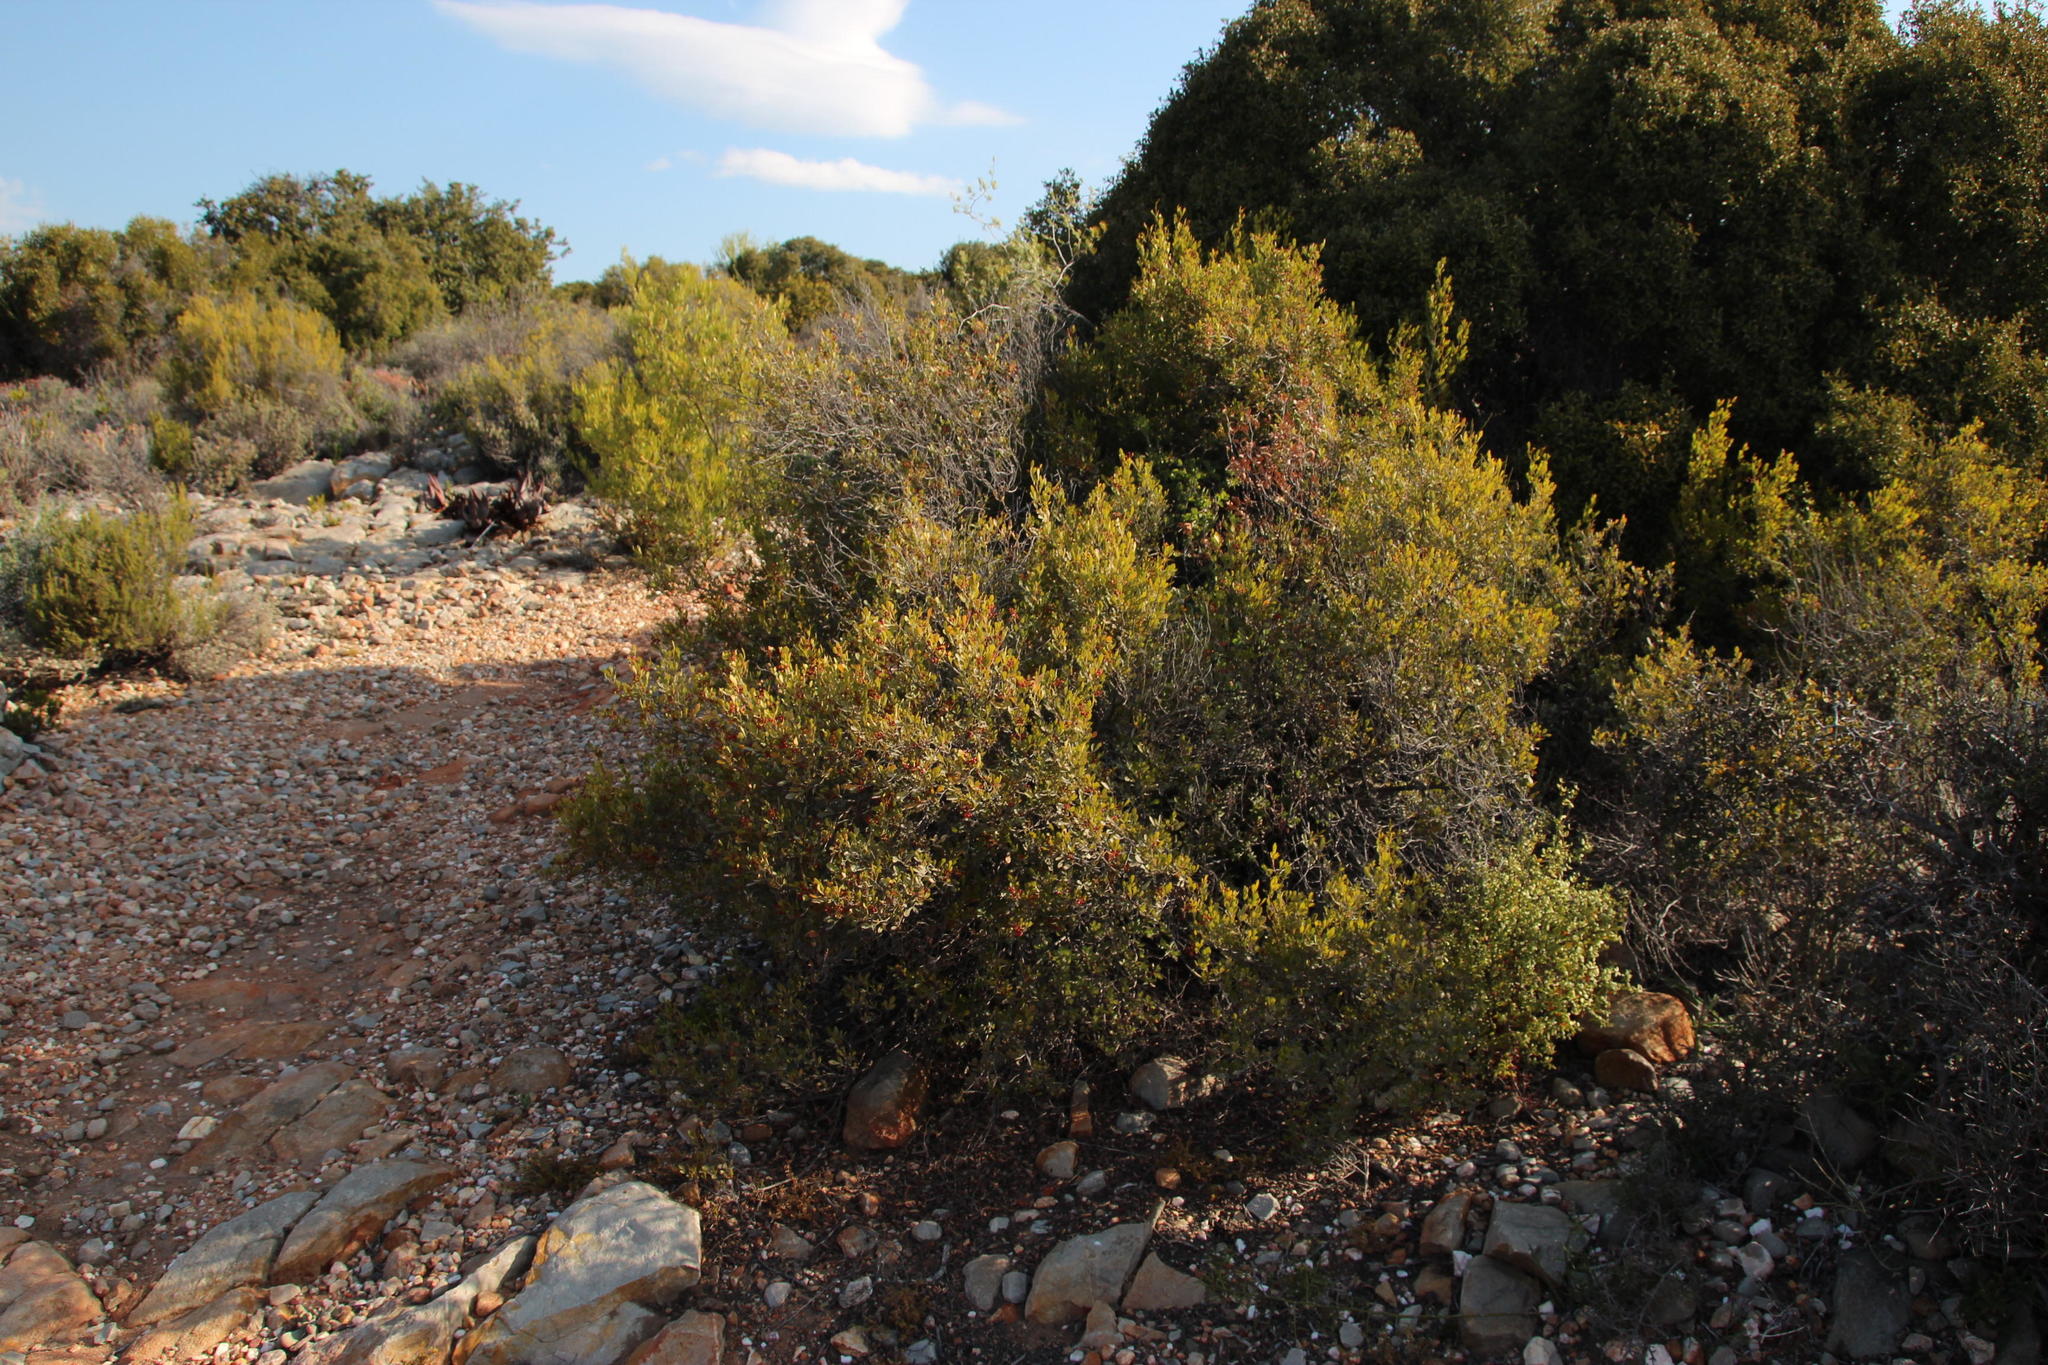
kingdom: Plantae
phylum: Tracheophyta
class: Magnoliopsida
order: Sapindales
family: Anacardiaceae
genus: Searsia
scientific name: Searsia pallens
